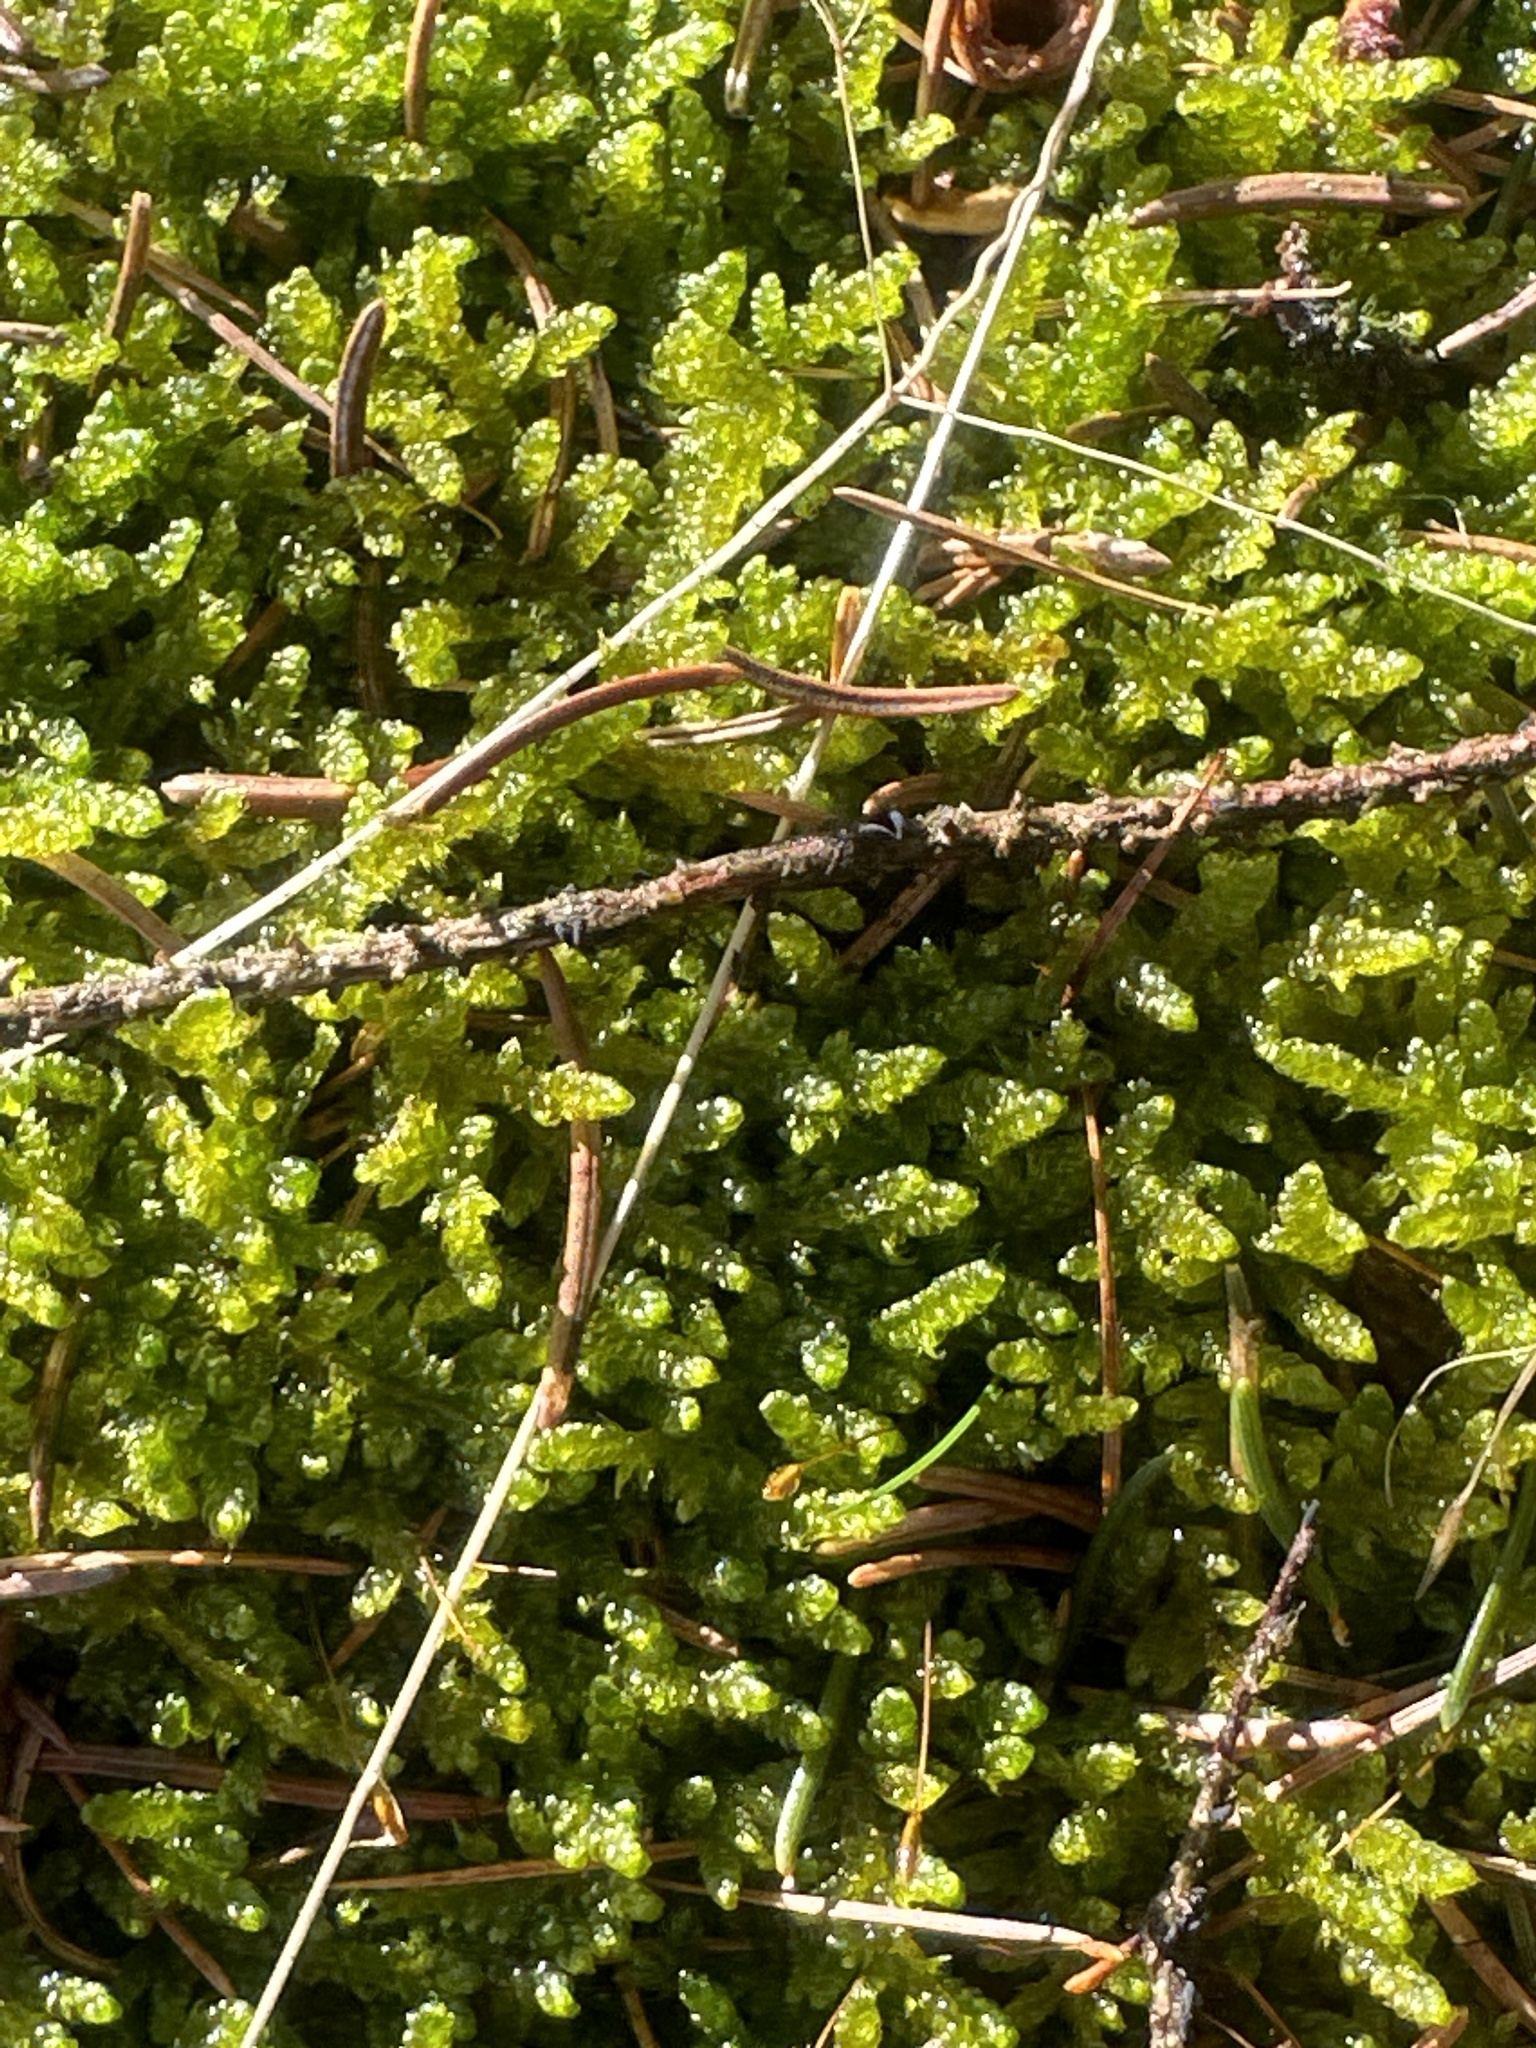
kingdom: Plantae
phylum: Bryophyta
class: Bryopsida
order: Hypnales
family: Hypnaceae
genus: Hypnum
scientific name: Hypnum cupressiforme
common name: Cypress-leaved plait-moss
